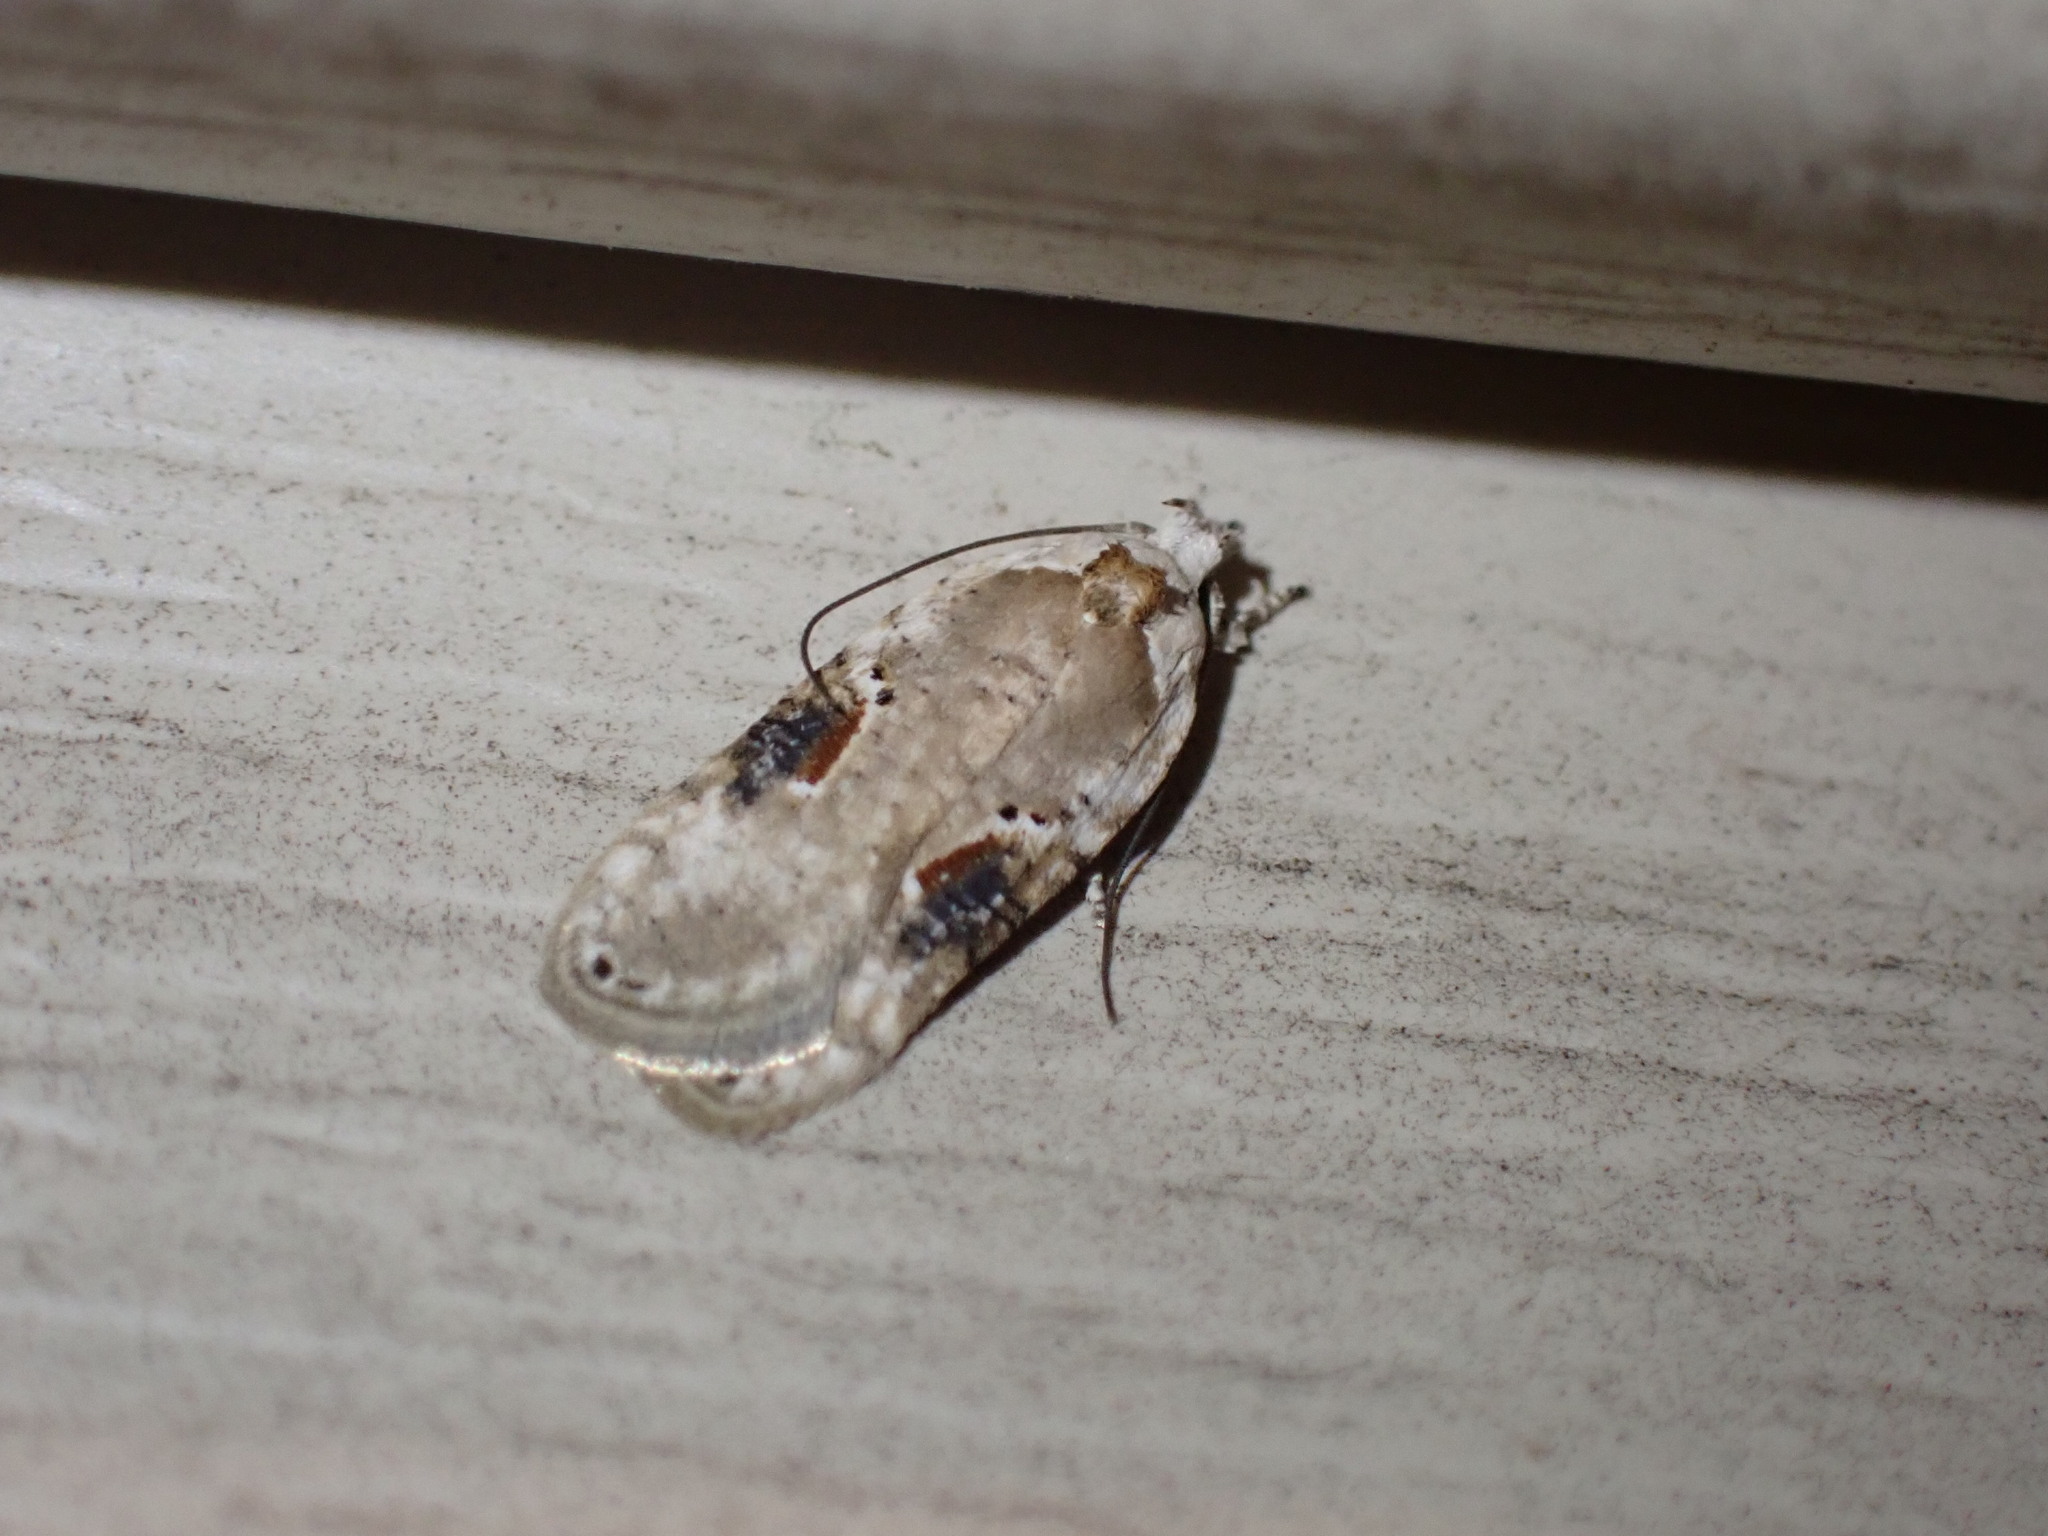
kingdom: Animalia
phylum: Arthropoda
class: Insecta
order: Lepidoptera
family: Depressariidae
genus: Agonopterix
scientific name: Agonopterix alstroemeriana
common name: Moth
